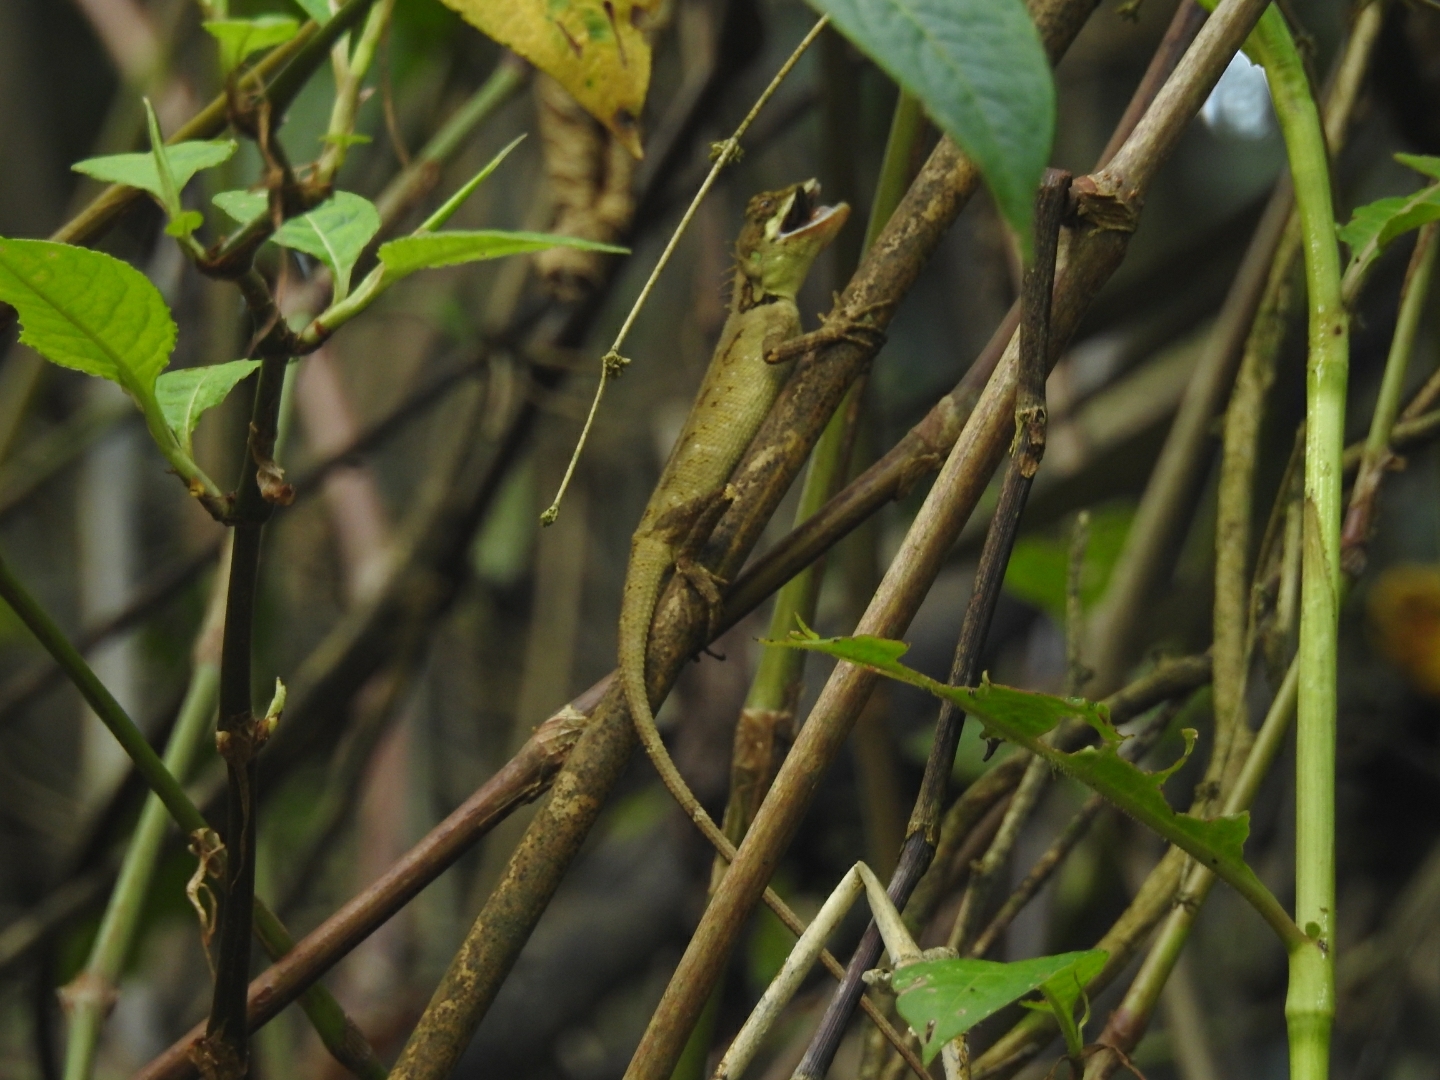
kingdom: Animalia
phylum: Chordata
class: Squamata
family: Agamidae
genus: Monilesaurus
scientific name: Monilesaurus ellioti
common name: Elliot's forest lizard
